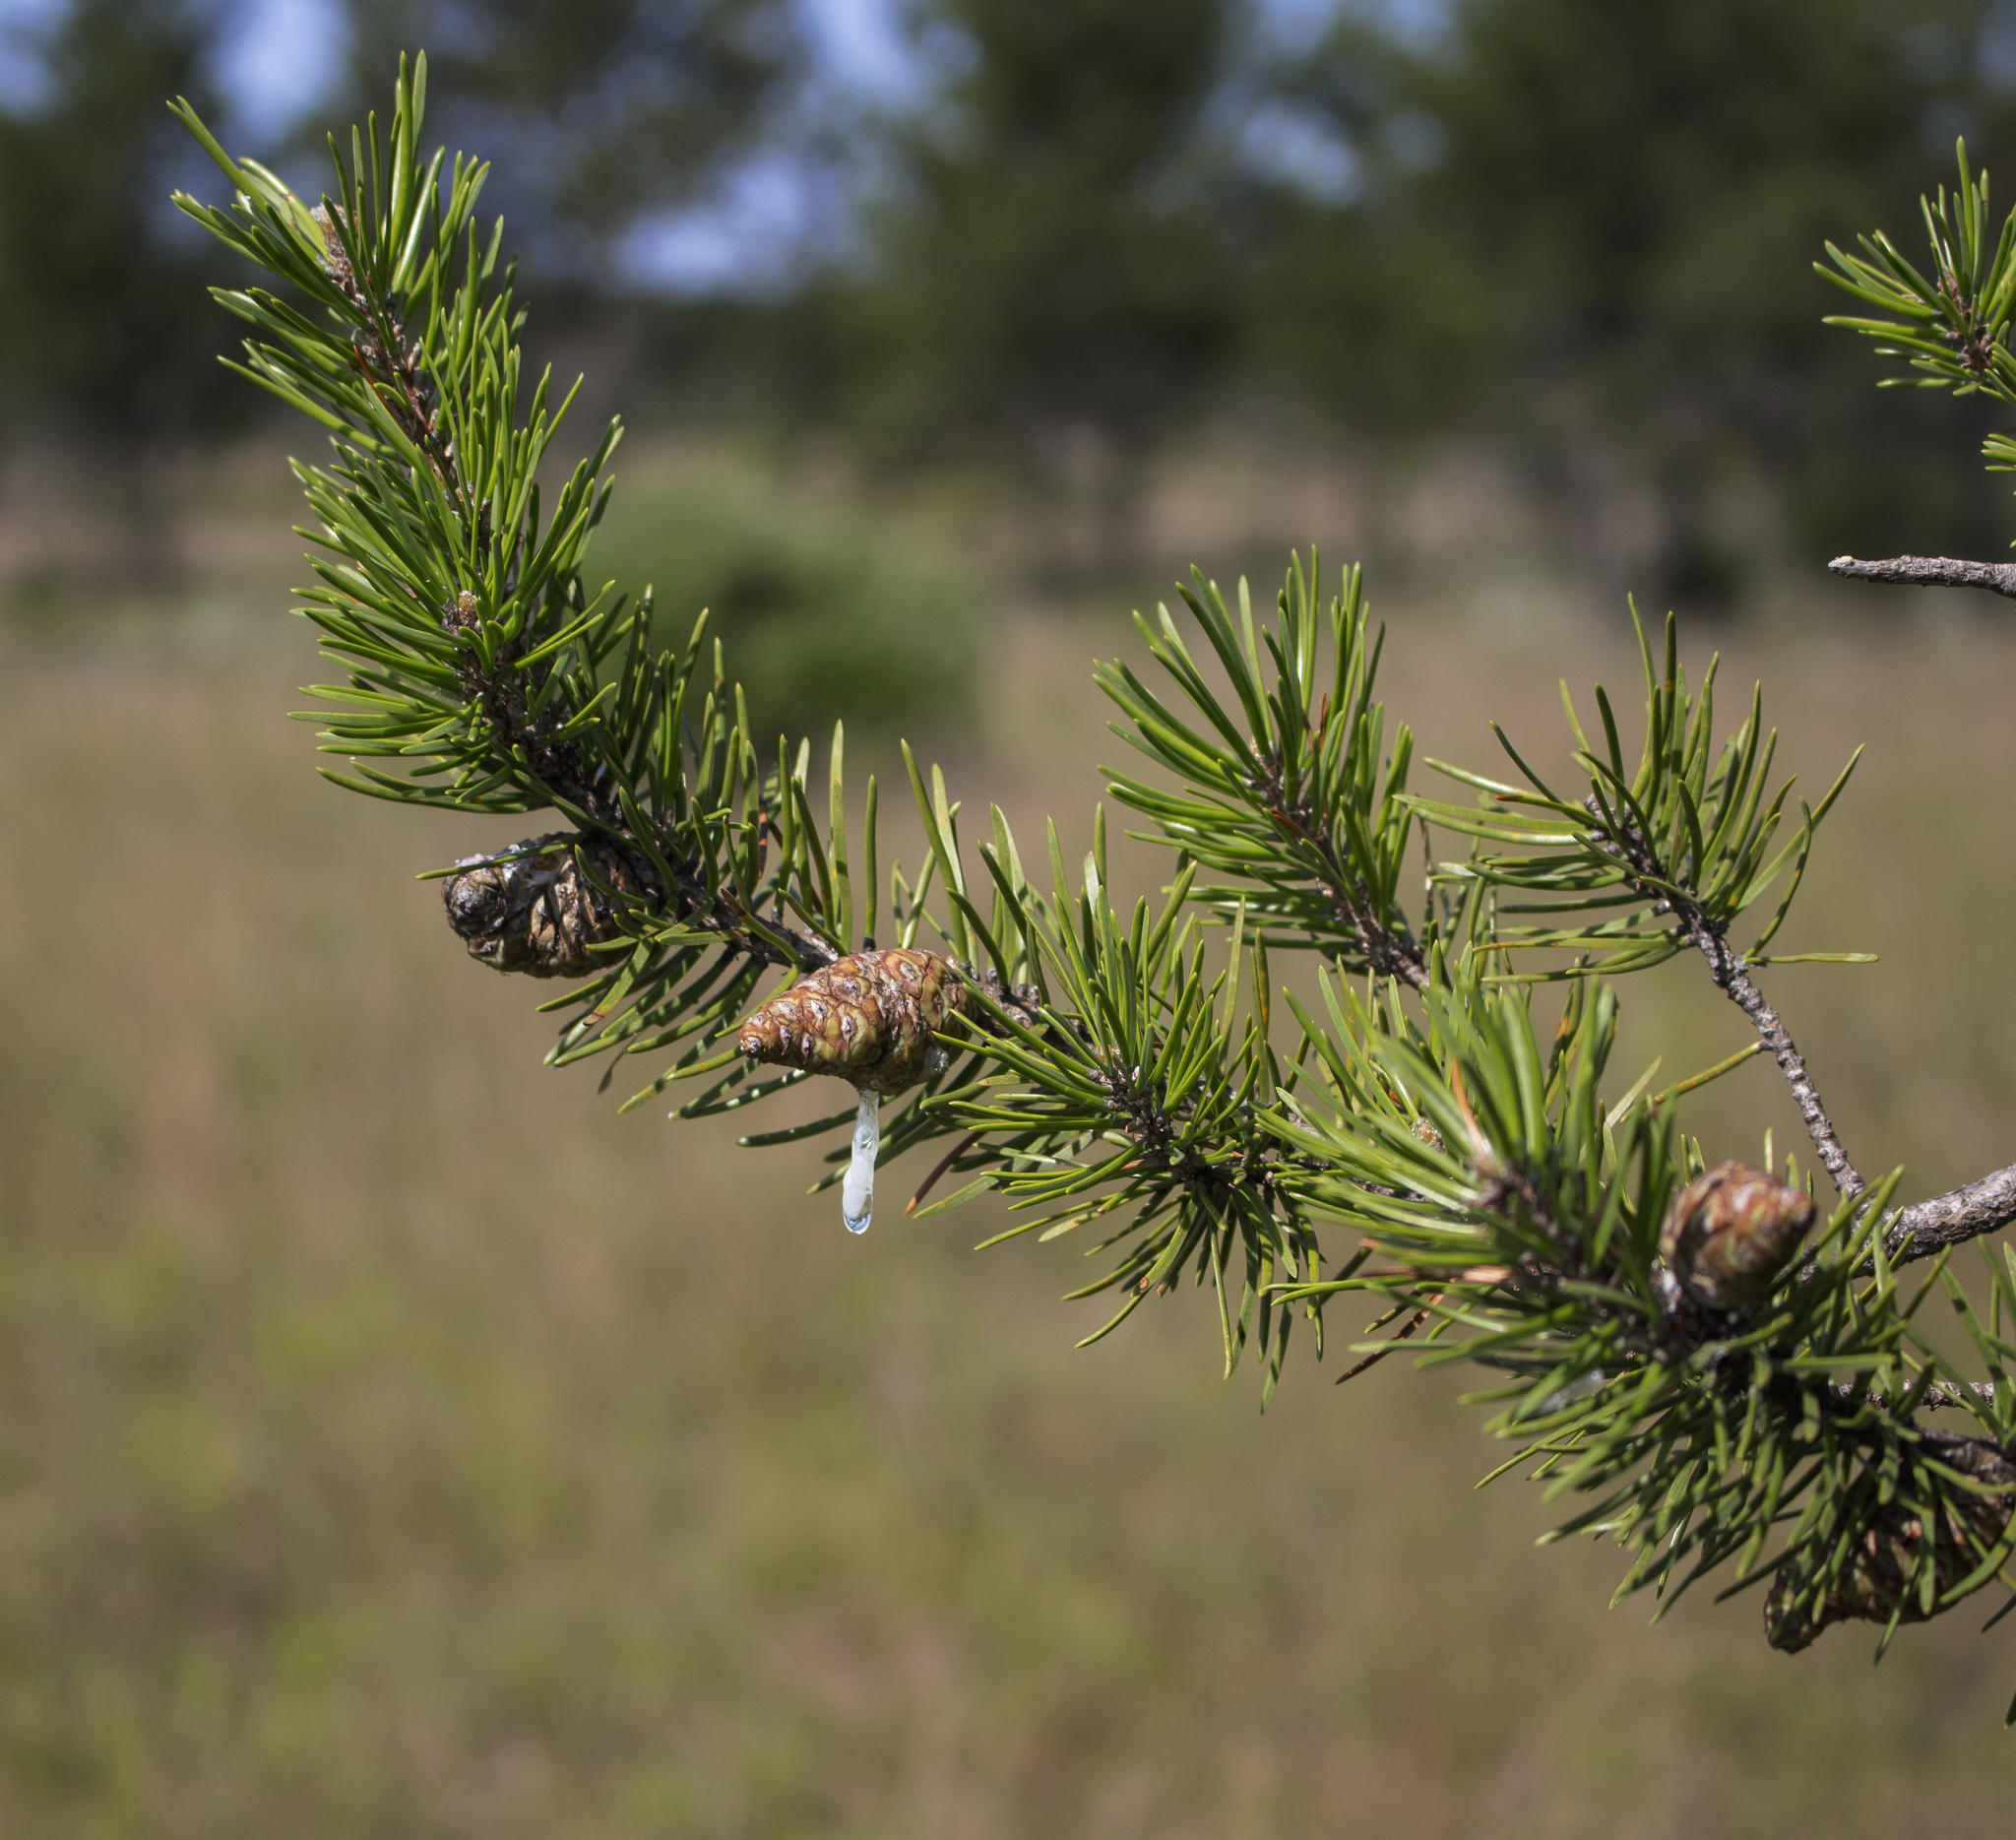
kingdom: Plantae
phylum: Tracheophyta
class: Pinopsida
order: Pinales
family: Pinaceae
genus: Pinus
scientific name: Pinus banksiana
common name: Jack pine
